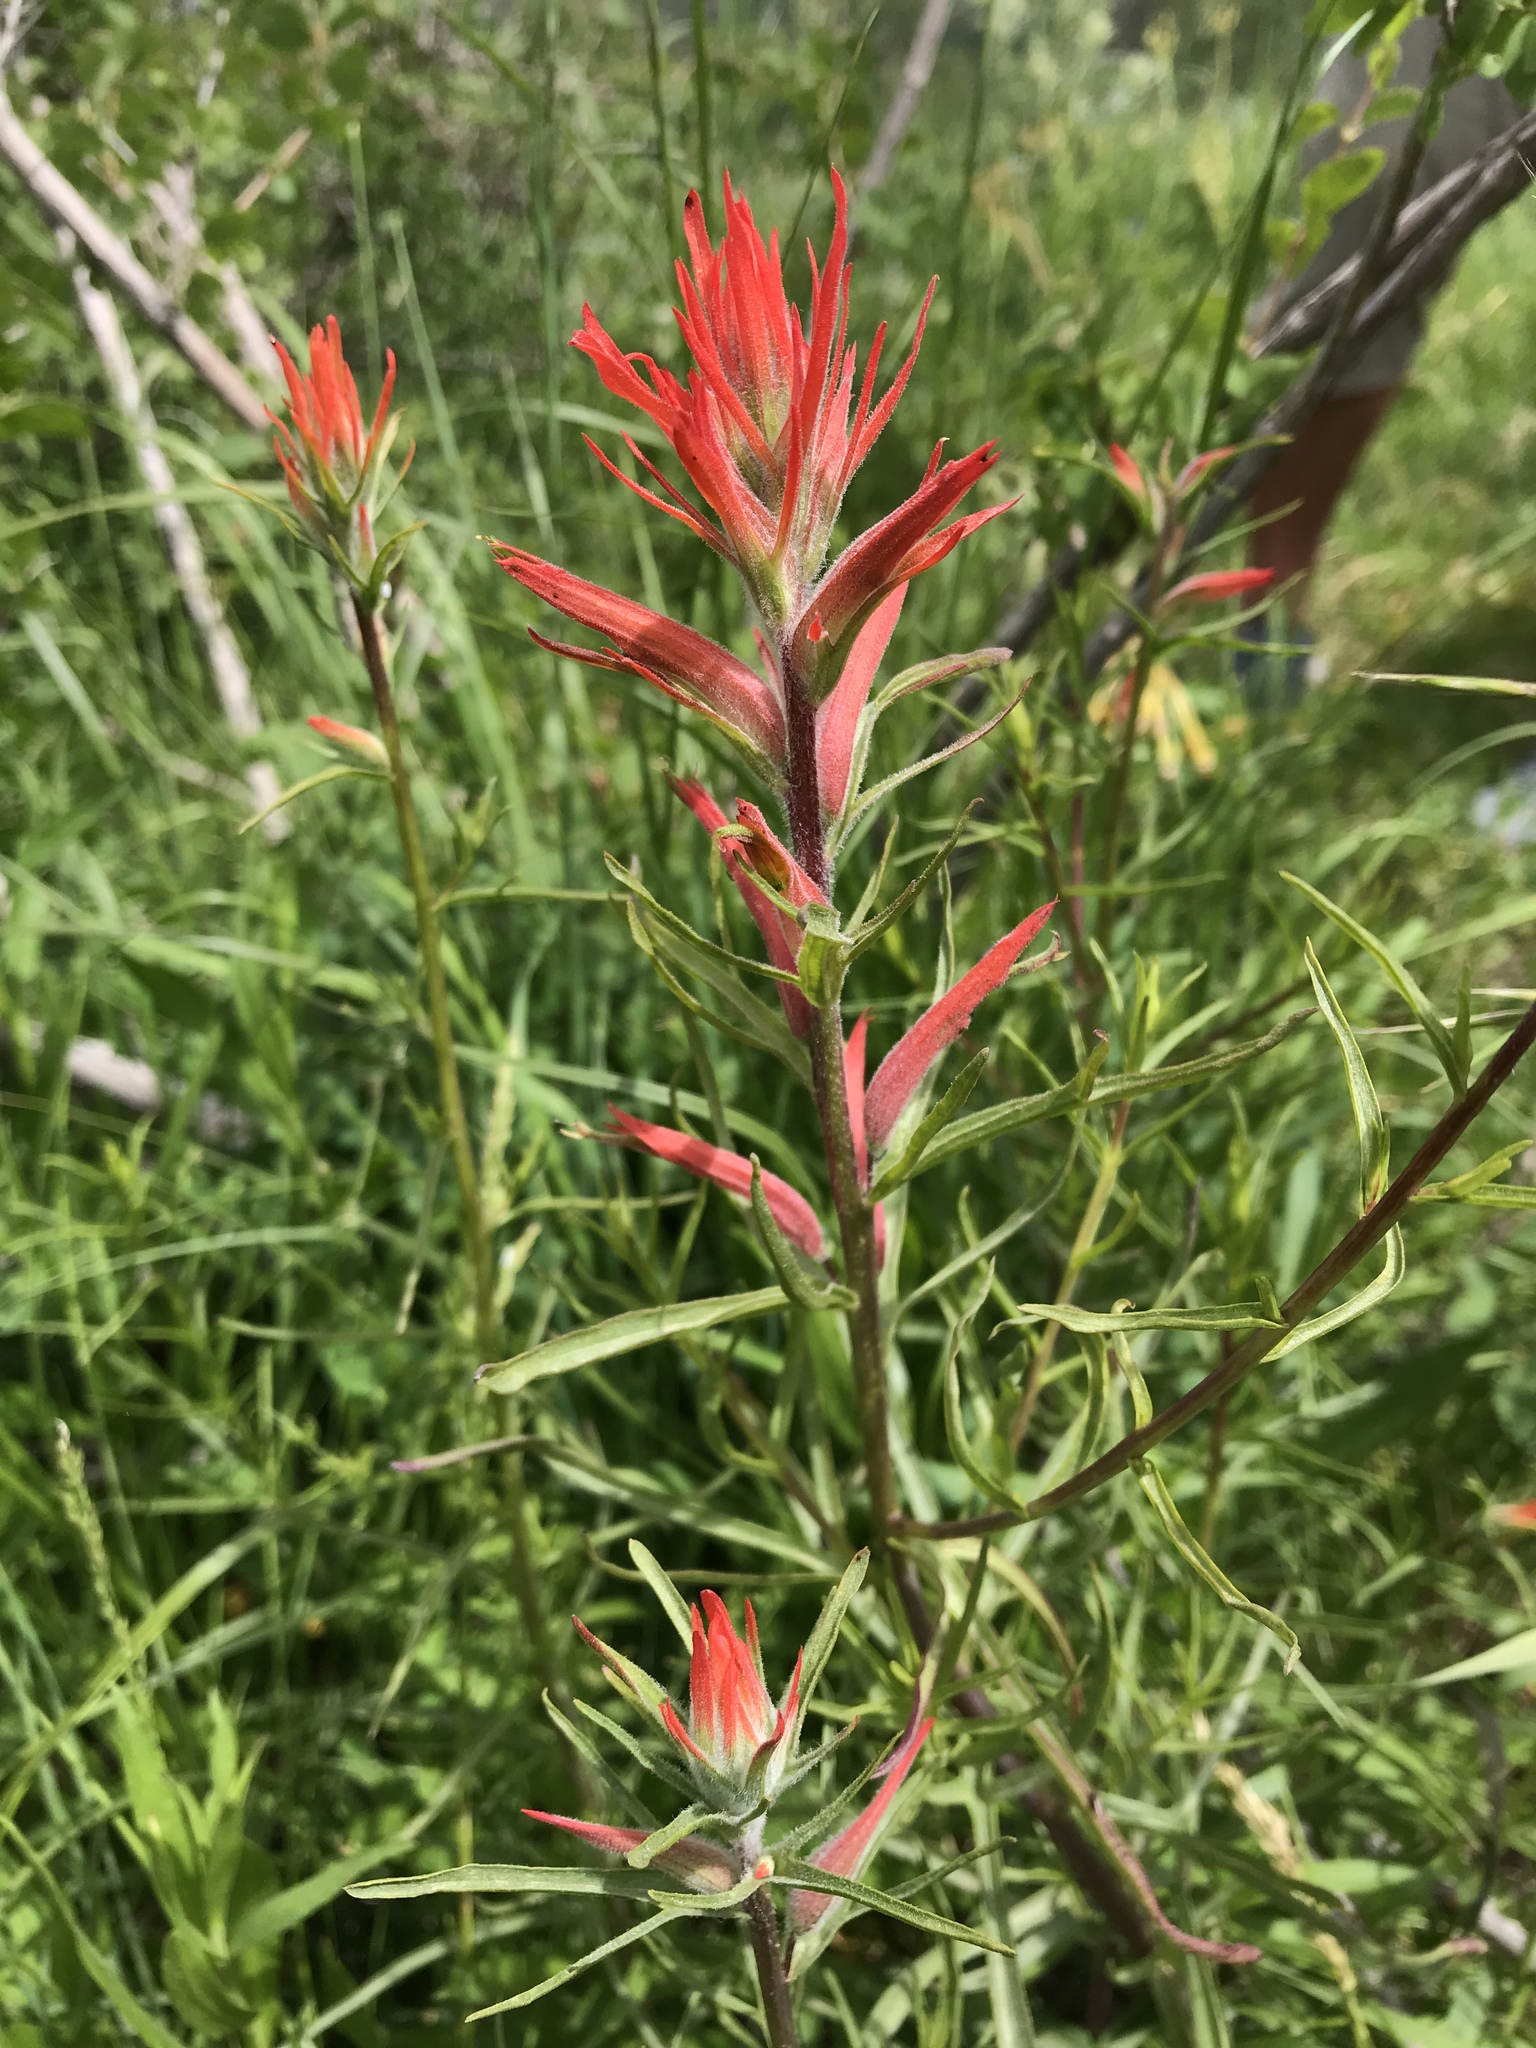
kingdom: Plantae
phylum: Tracheophyta
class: Magnoliopsida
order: Lamiales
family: Orobanchaceae
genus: Castilleja
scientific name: Castilleja linariifolia
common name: Wyoming paintbrush
